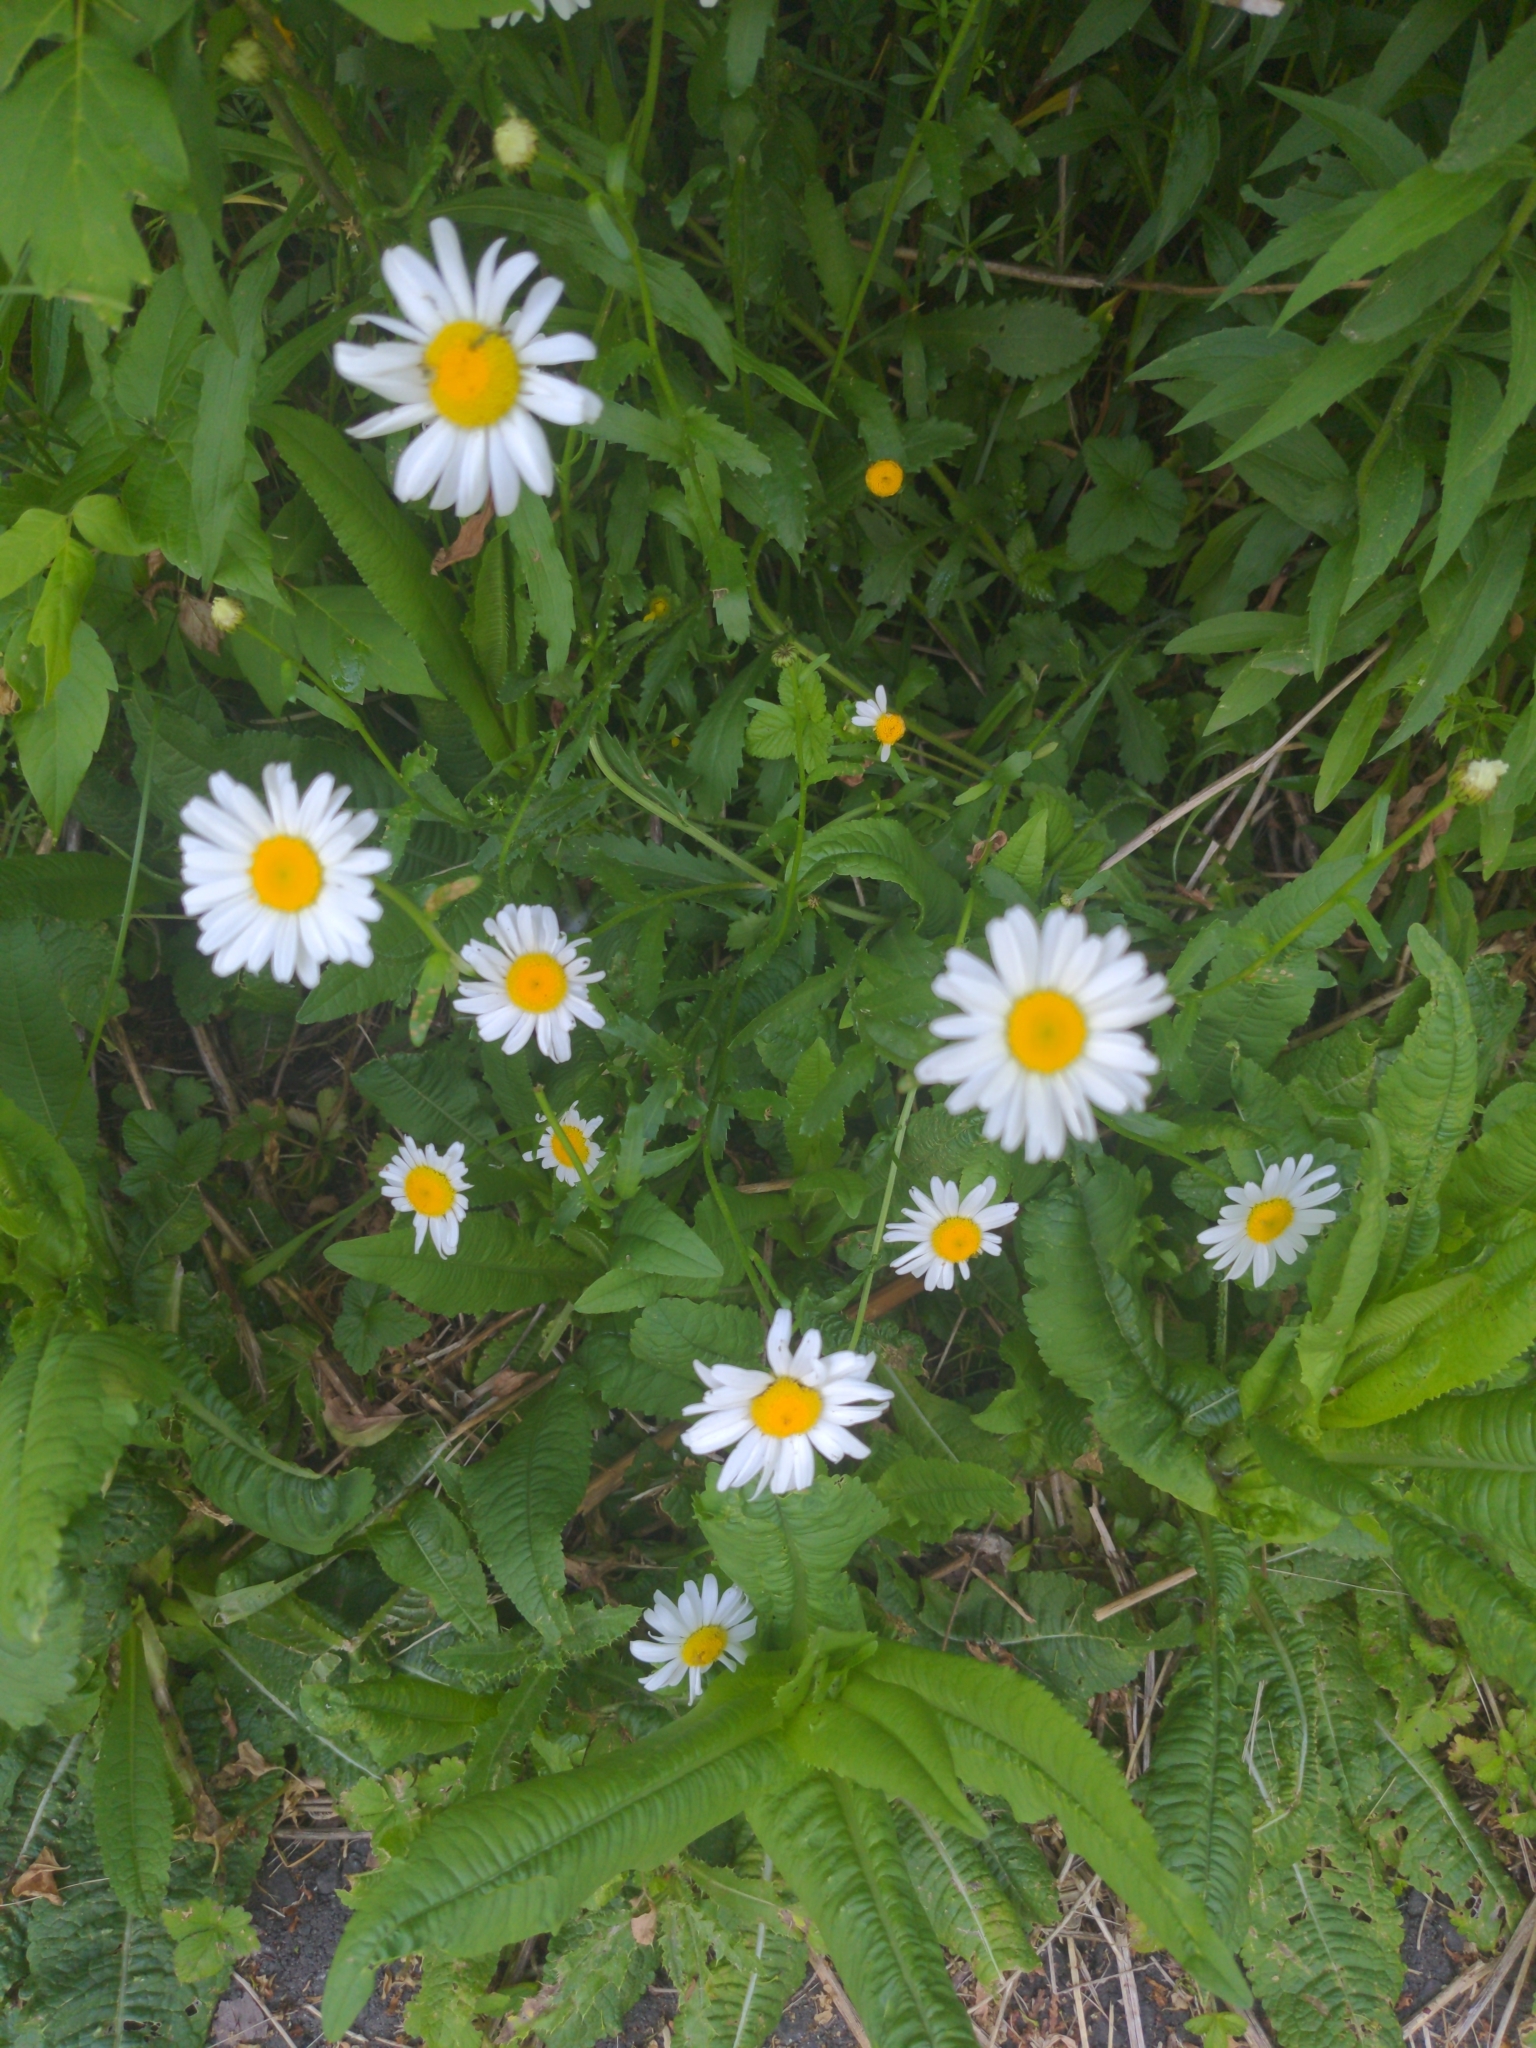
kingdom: Plantae
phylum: Tracheophyta
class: Magnoliopsida
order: Asterales
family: Asteraceae
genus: Leucanthemum
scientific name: Leucanthemum vulgare
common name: Oxeye daisy
